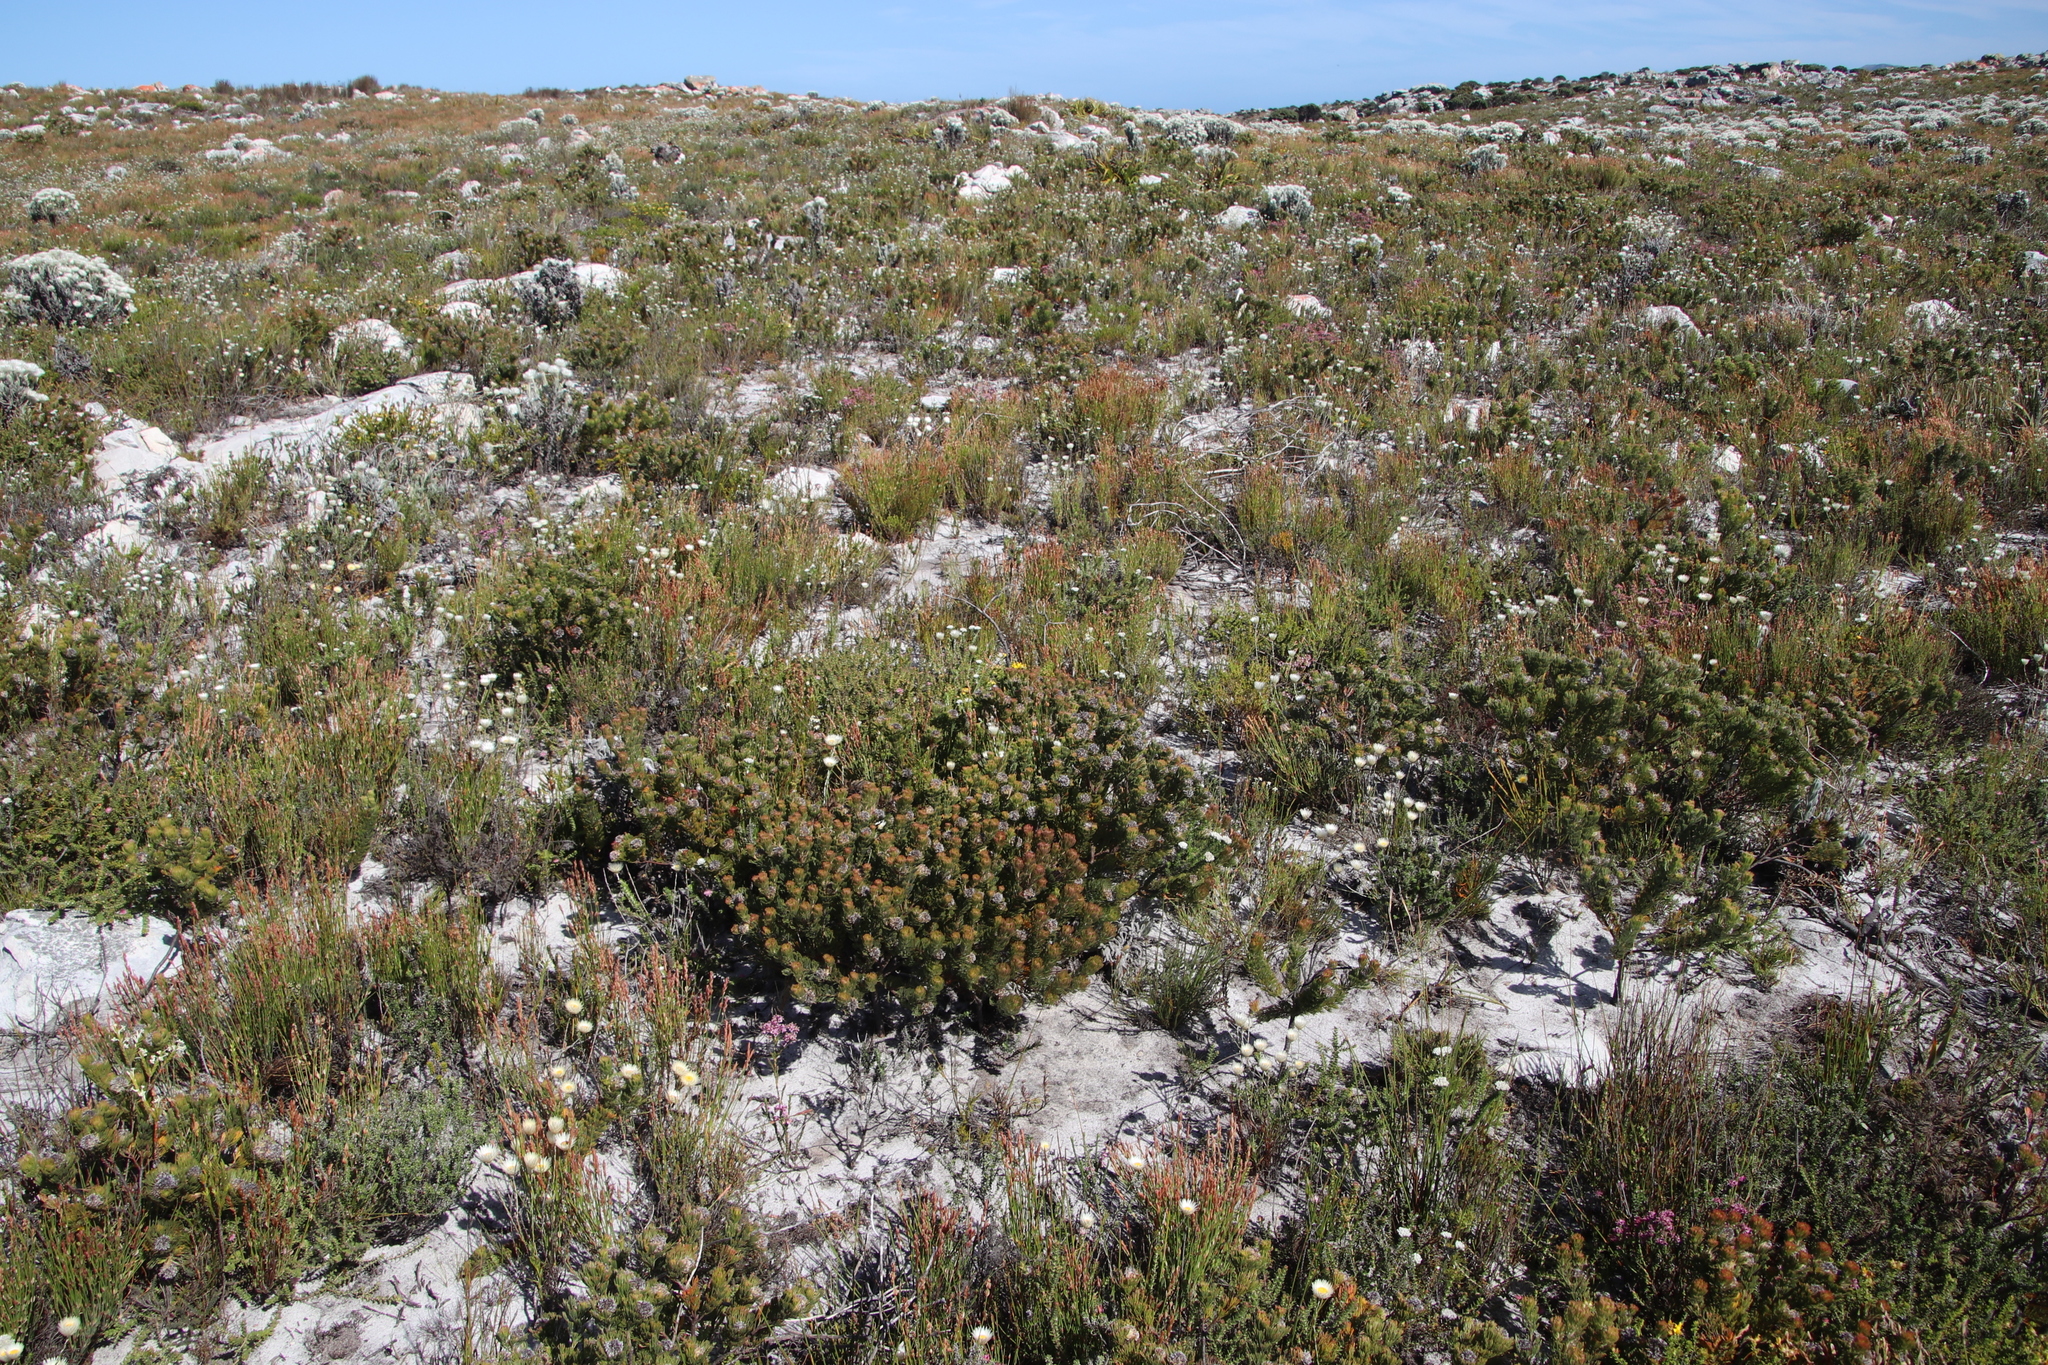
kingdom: Plantae
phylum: Tracheophyta
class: Magnoliopsida
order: Proteales
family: Proteaceae
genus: Serruria
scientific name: Serruria villosa
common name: Golden spiderhead
